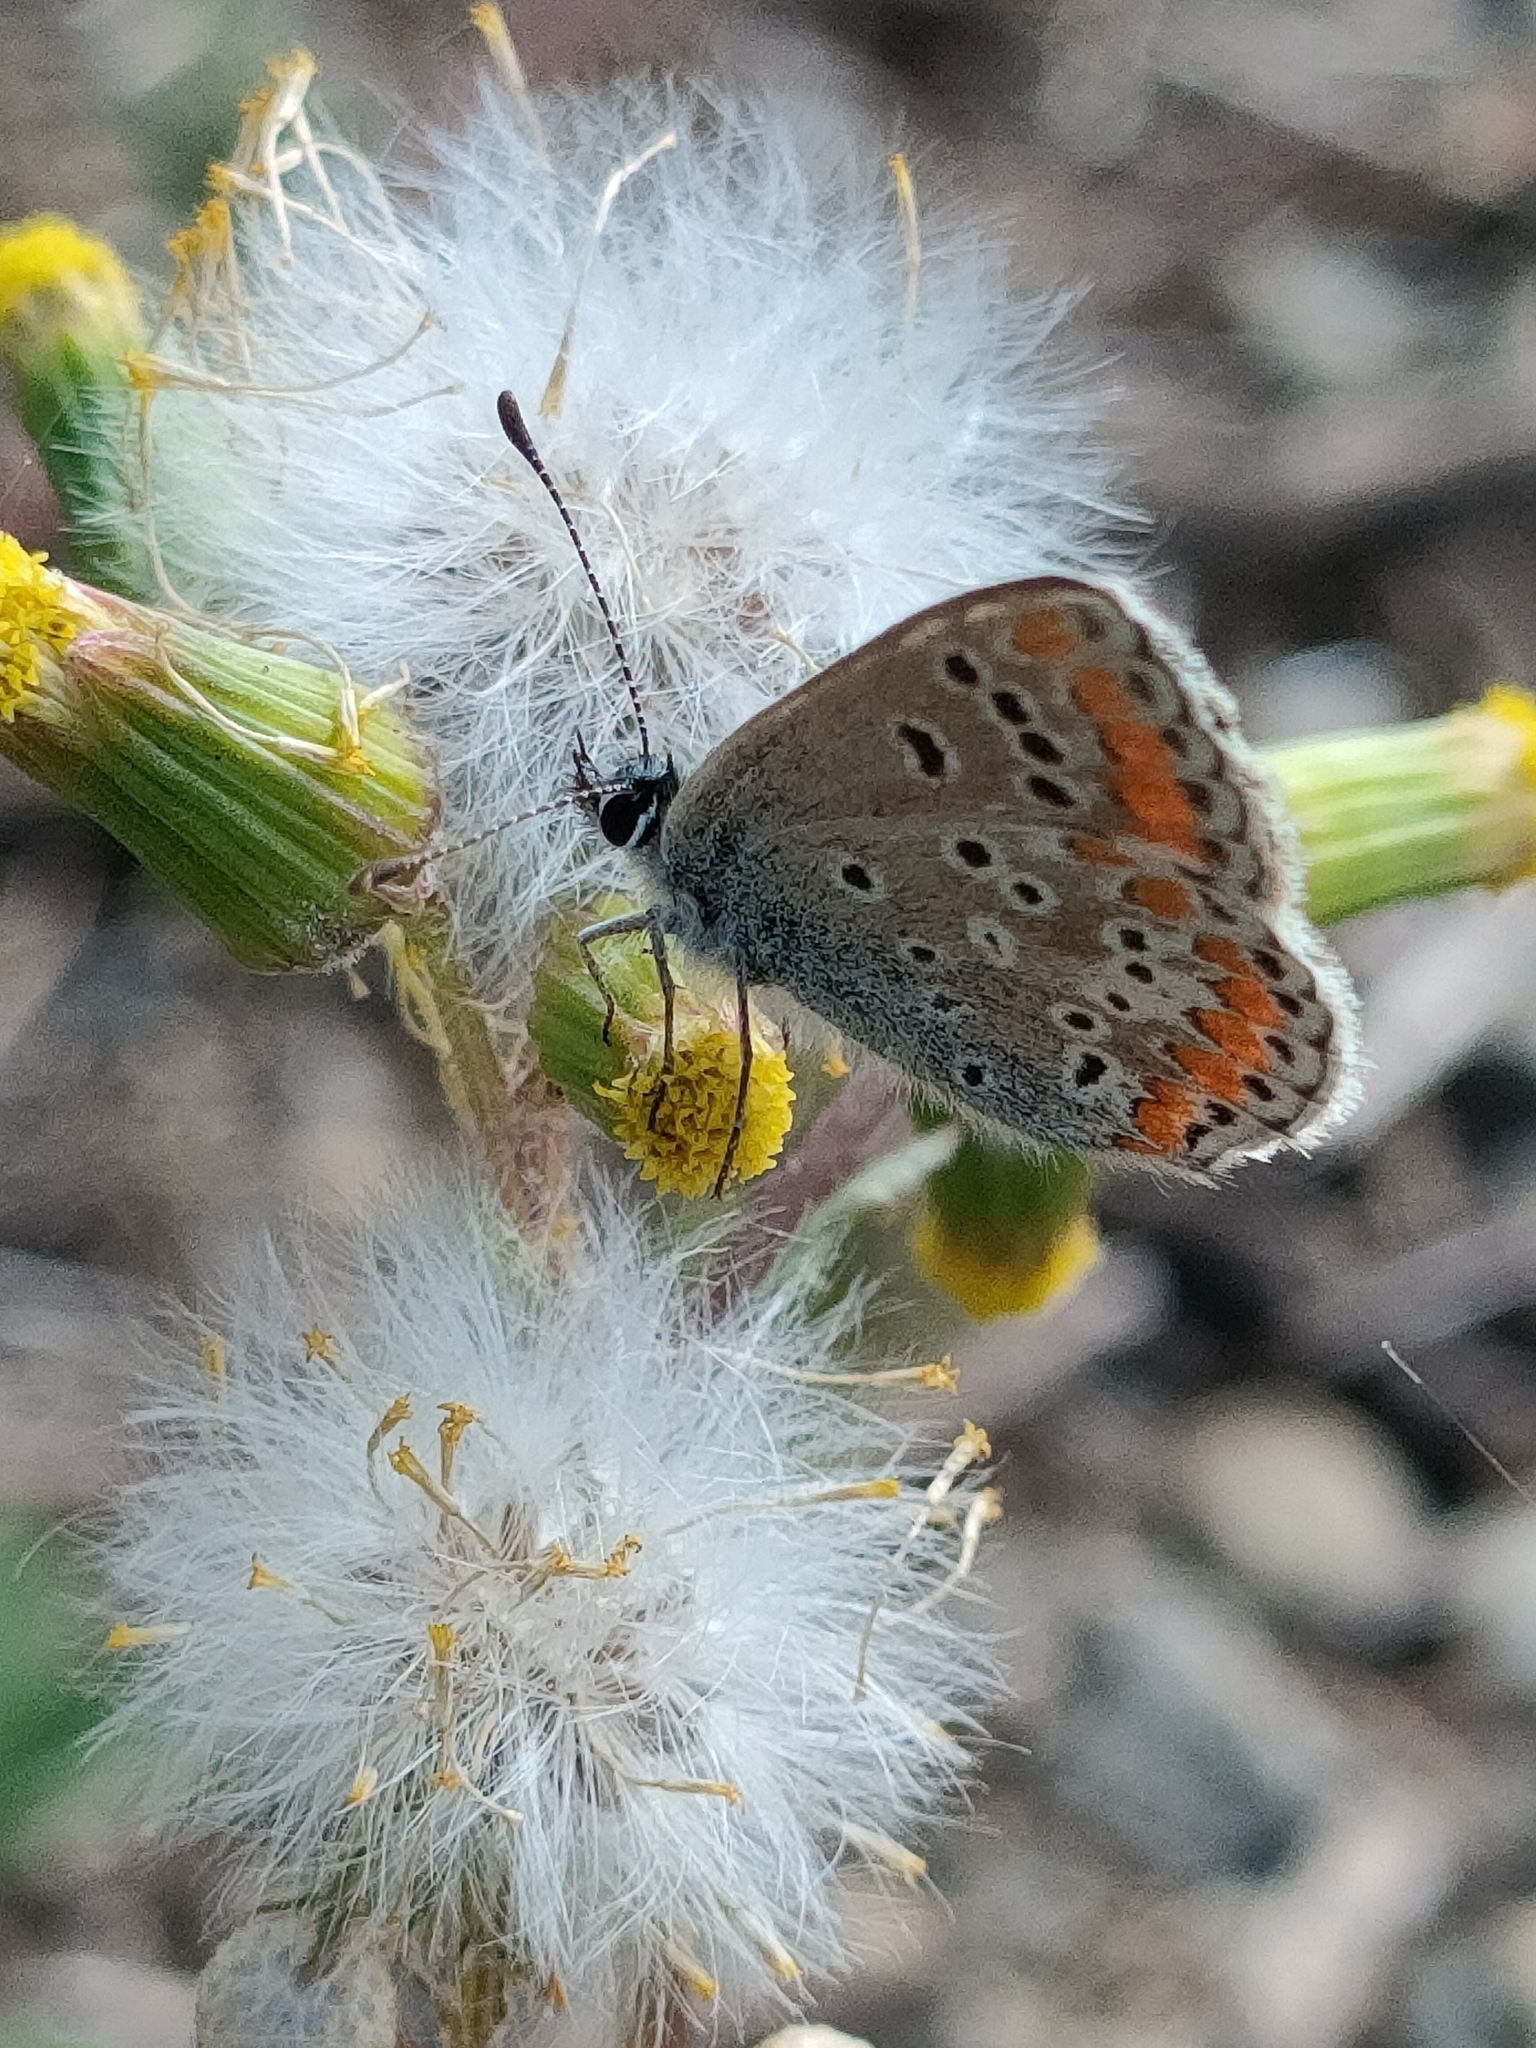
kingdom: Animalia
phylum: Arthropoda
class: Insecta
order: Lepidoptera
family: Lycaenidae
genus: Aricia
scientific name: Aricia agestis
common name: Brown argus
